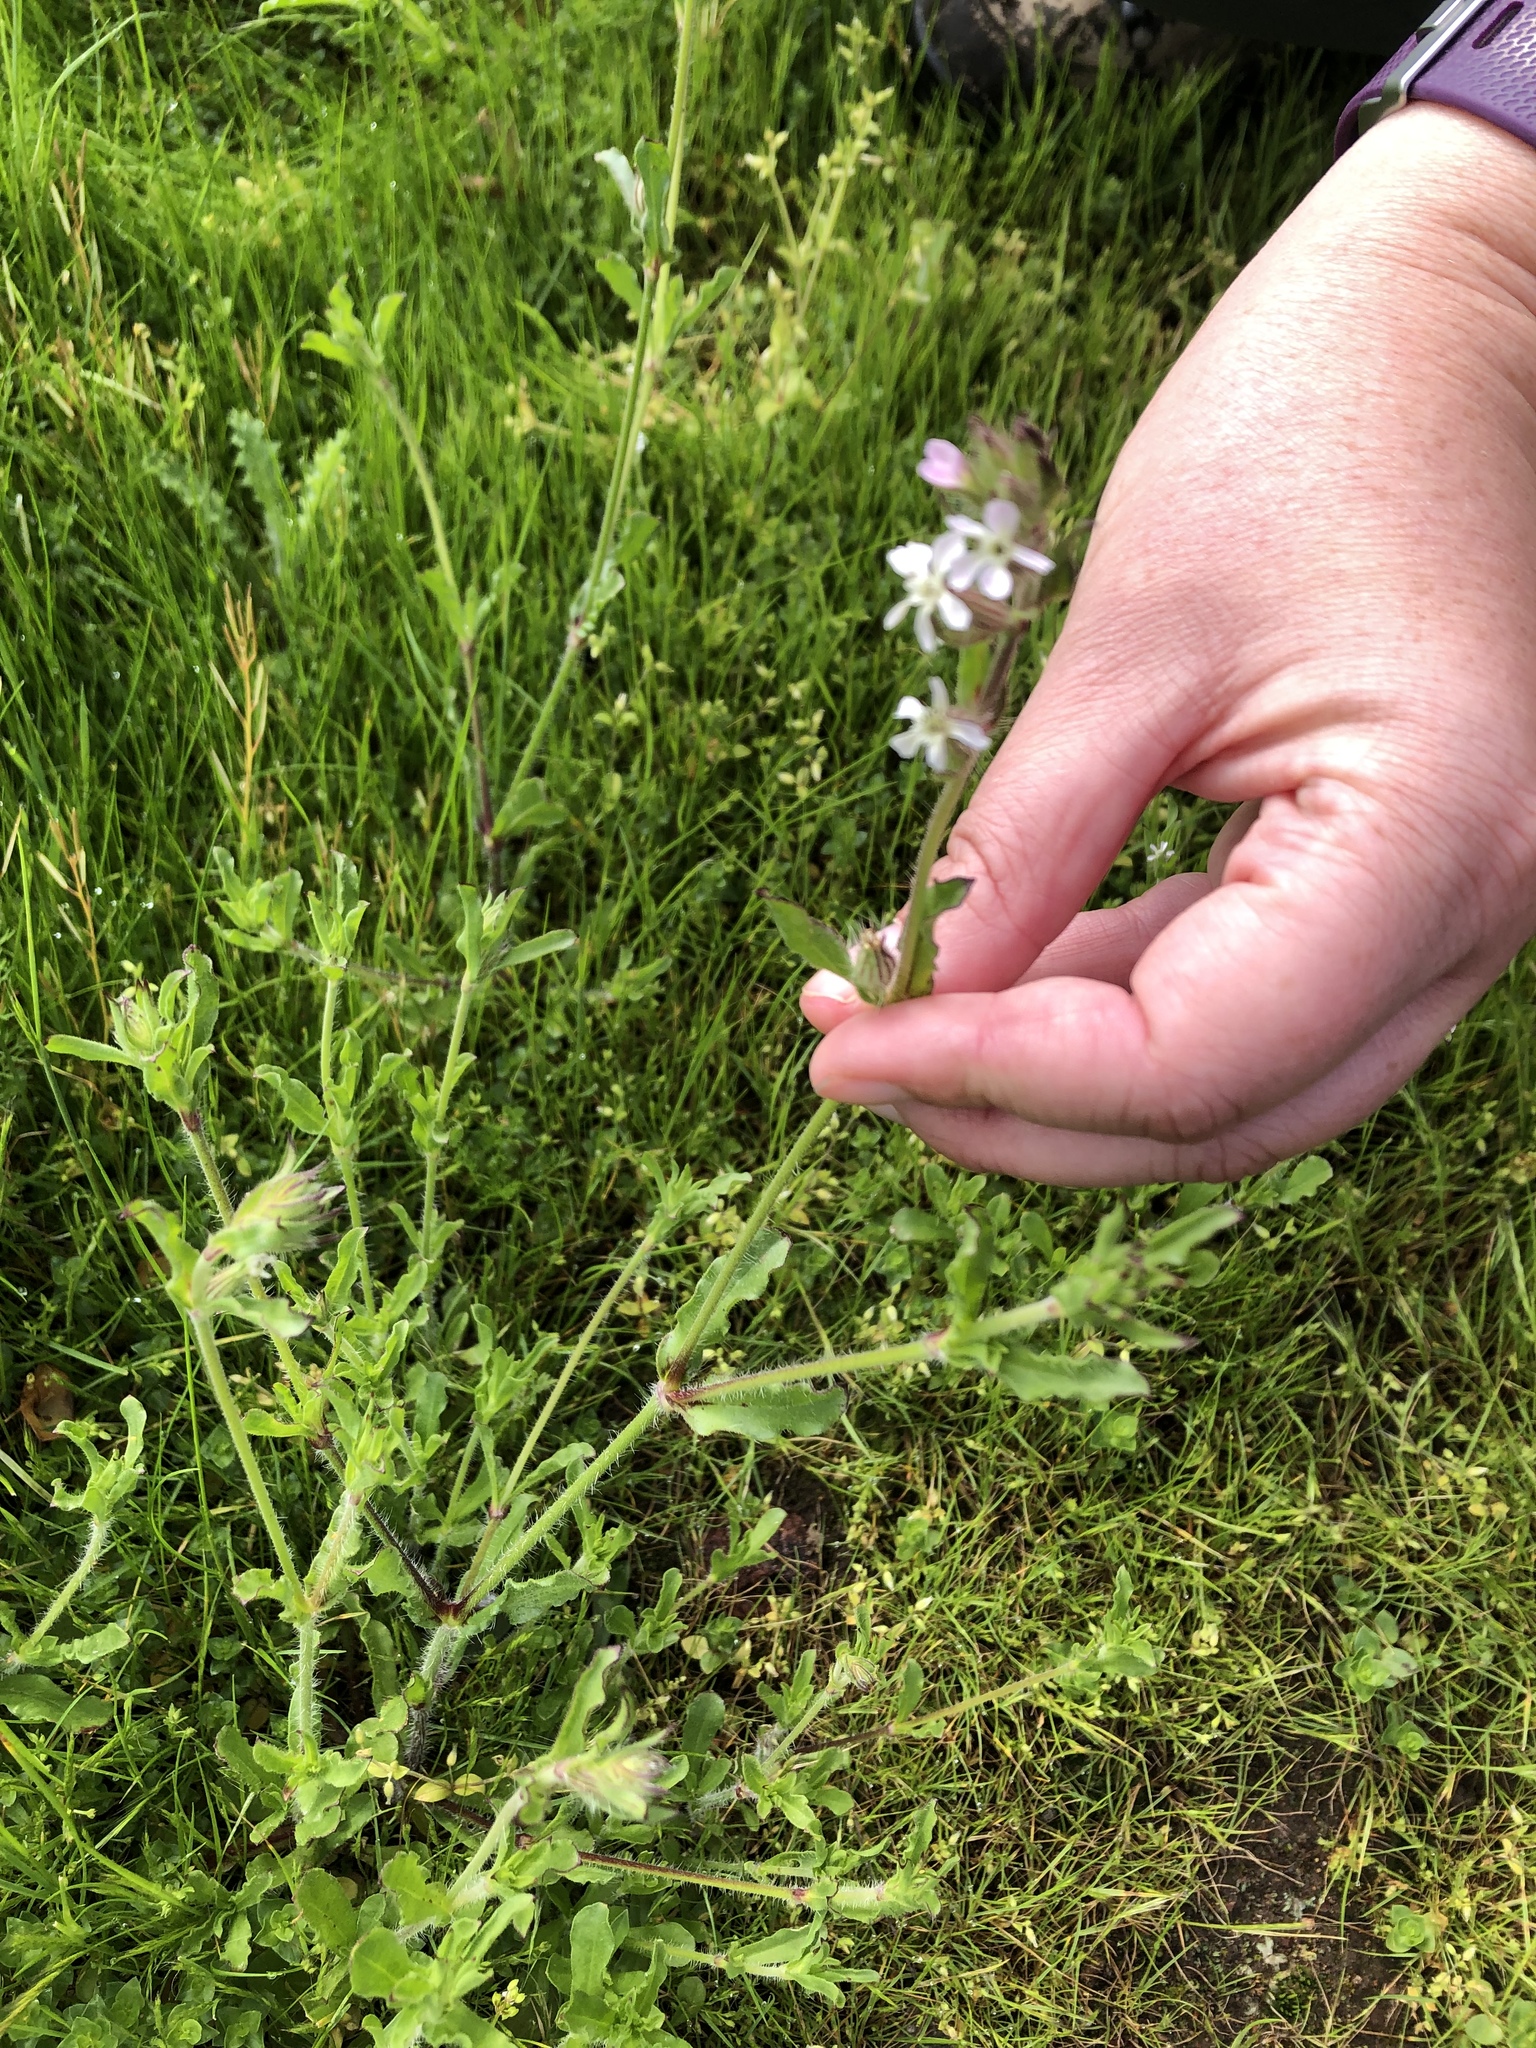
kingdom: Plantae
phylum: Tracheophyta
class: Magnoliopsida
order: Caryophyllales
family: Caryophyllaceae
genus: Silene
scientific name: Silene gallica
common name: Small-flowered catchfly
